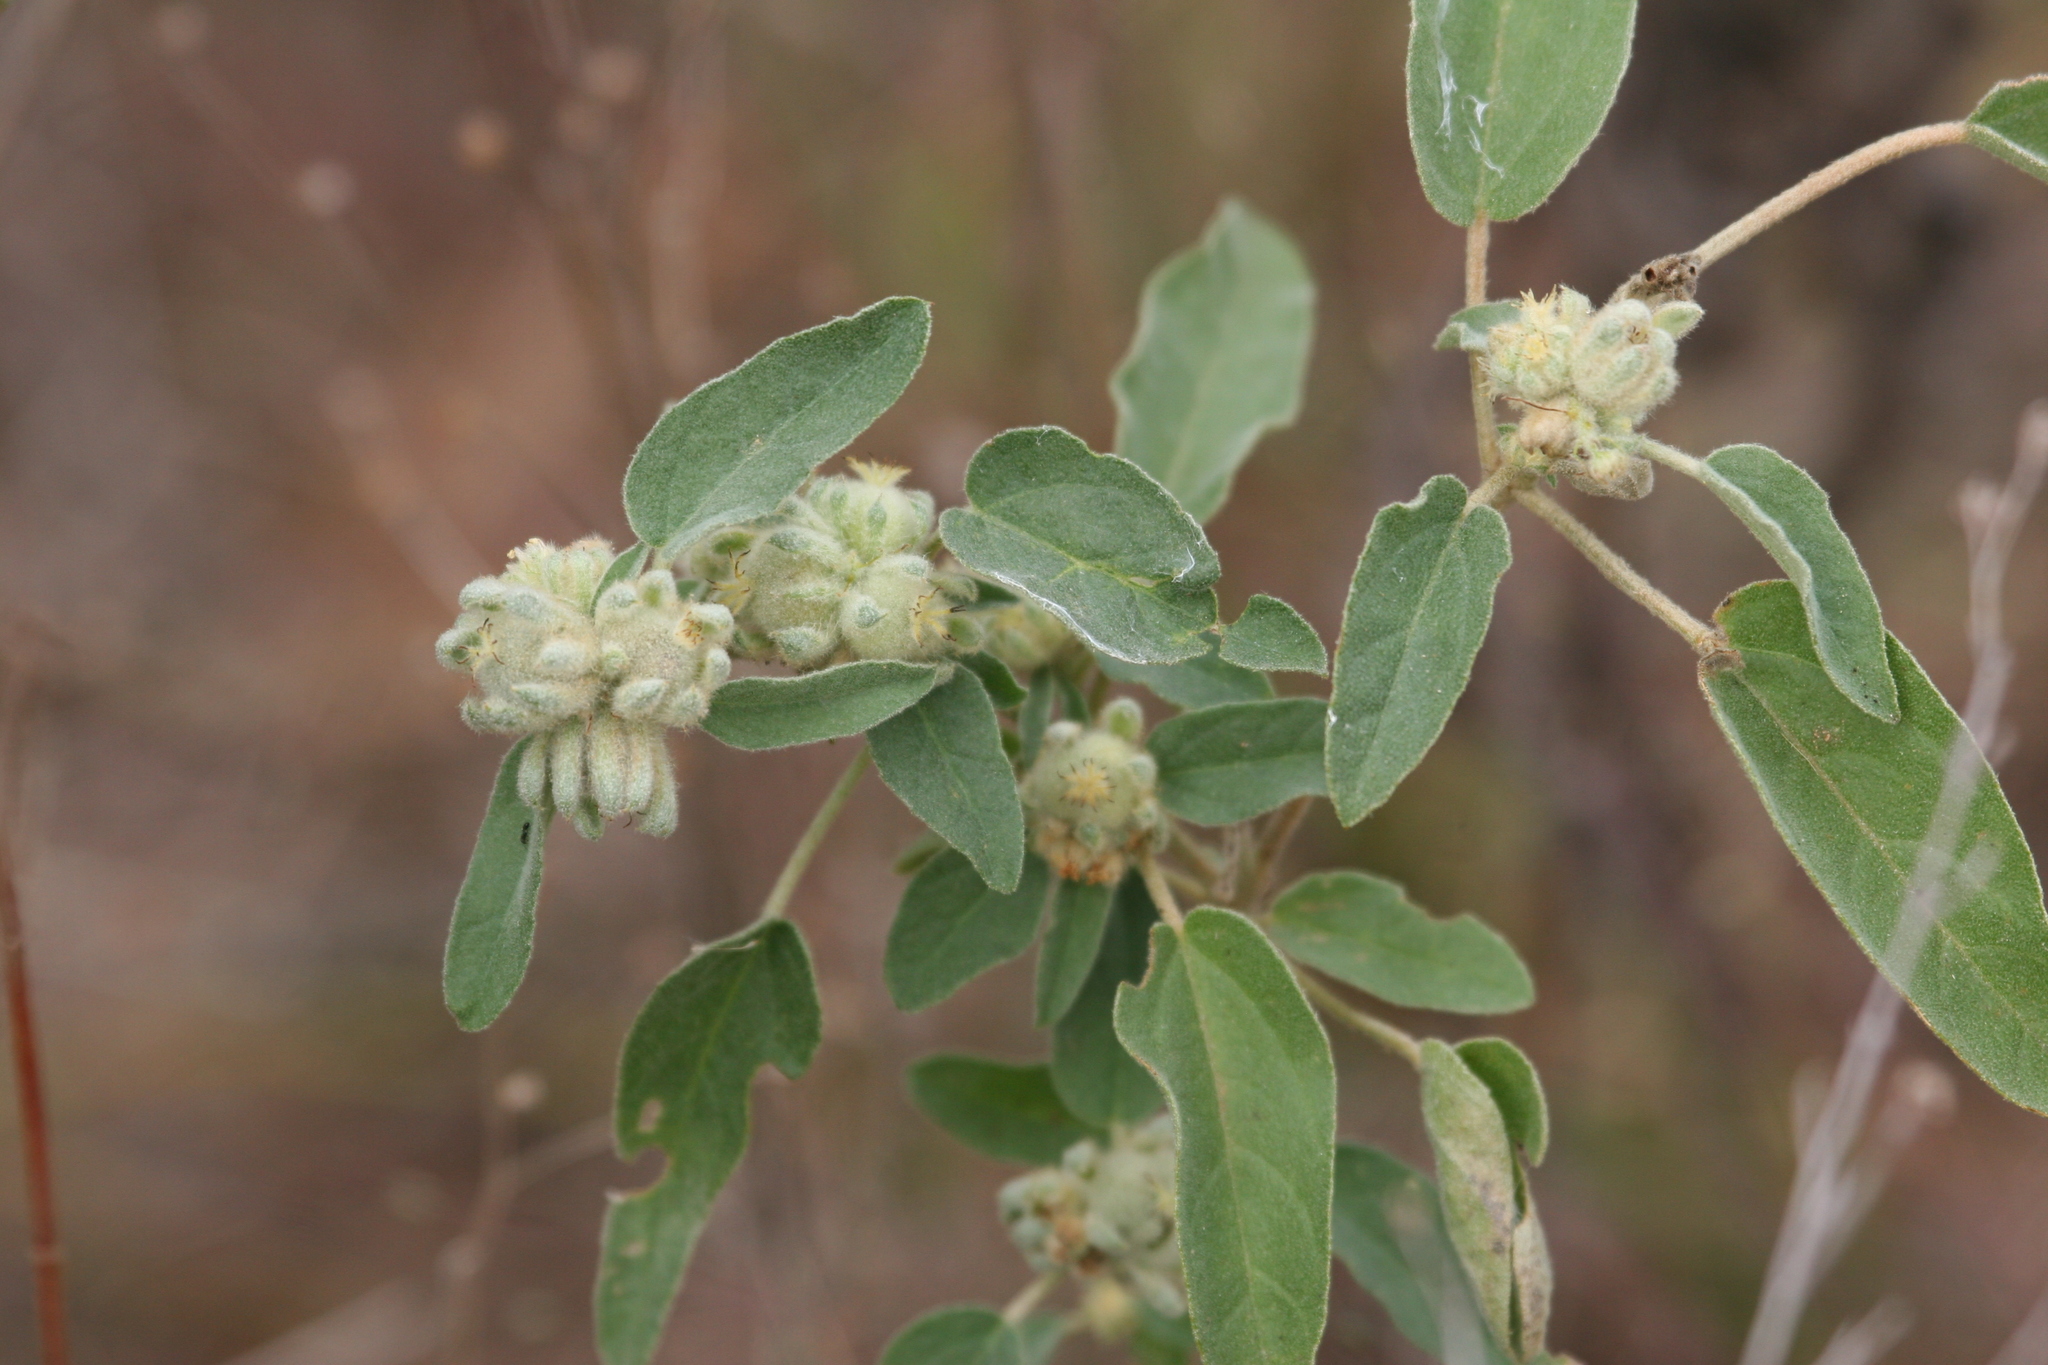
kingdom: Plantae
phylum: Tracheophyta
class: Magnoliopsida
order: Malpighiales
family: Euphorbiaceae
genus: Croton
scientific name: Croton lindheimeri
